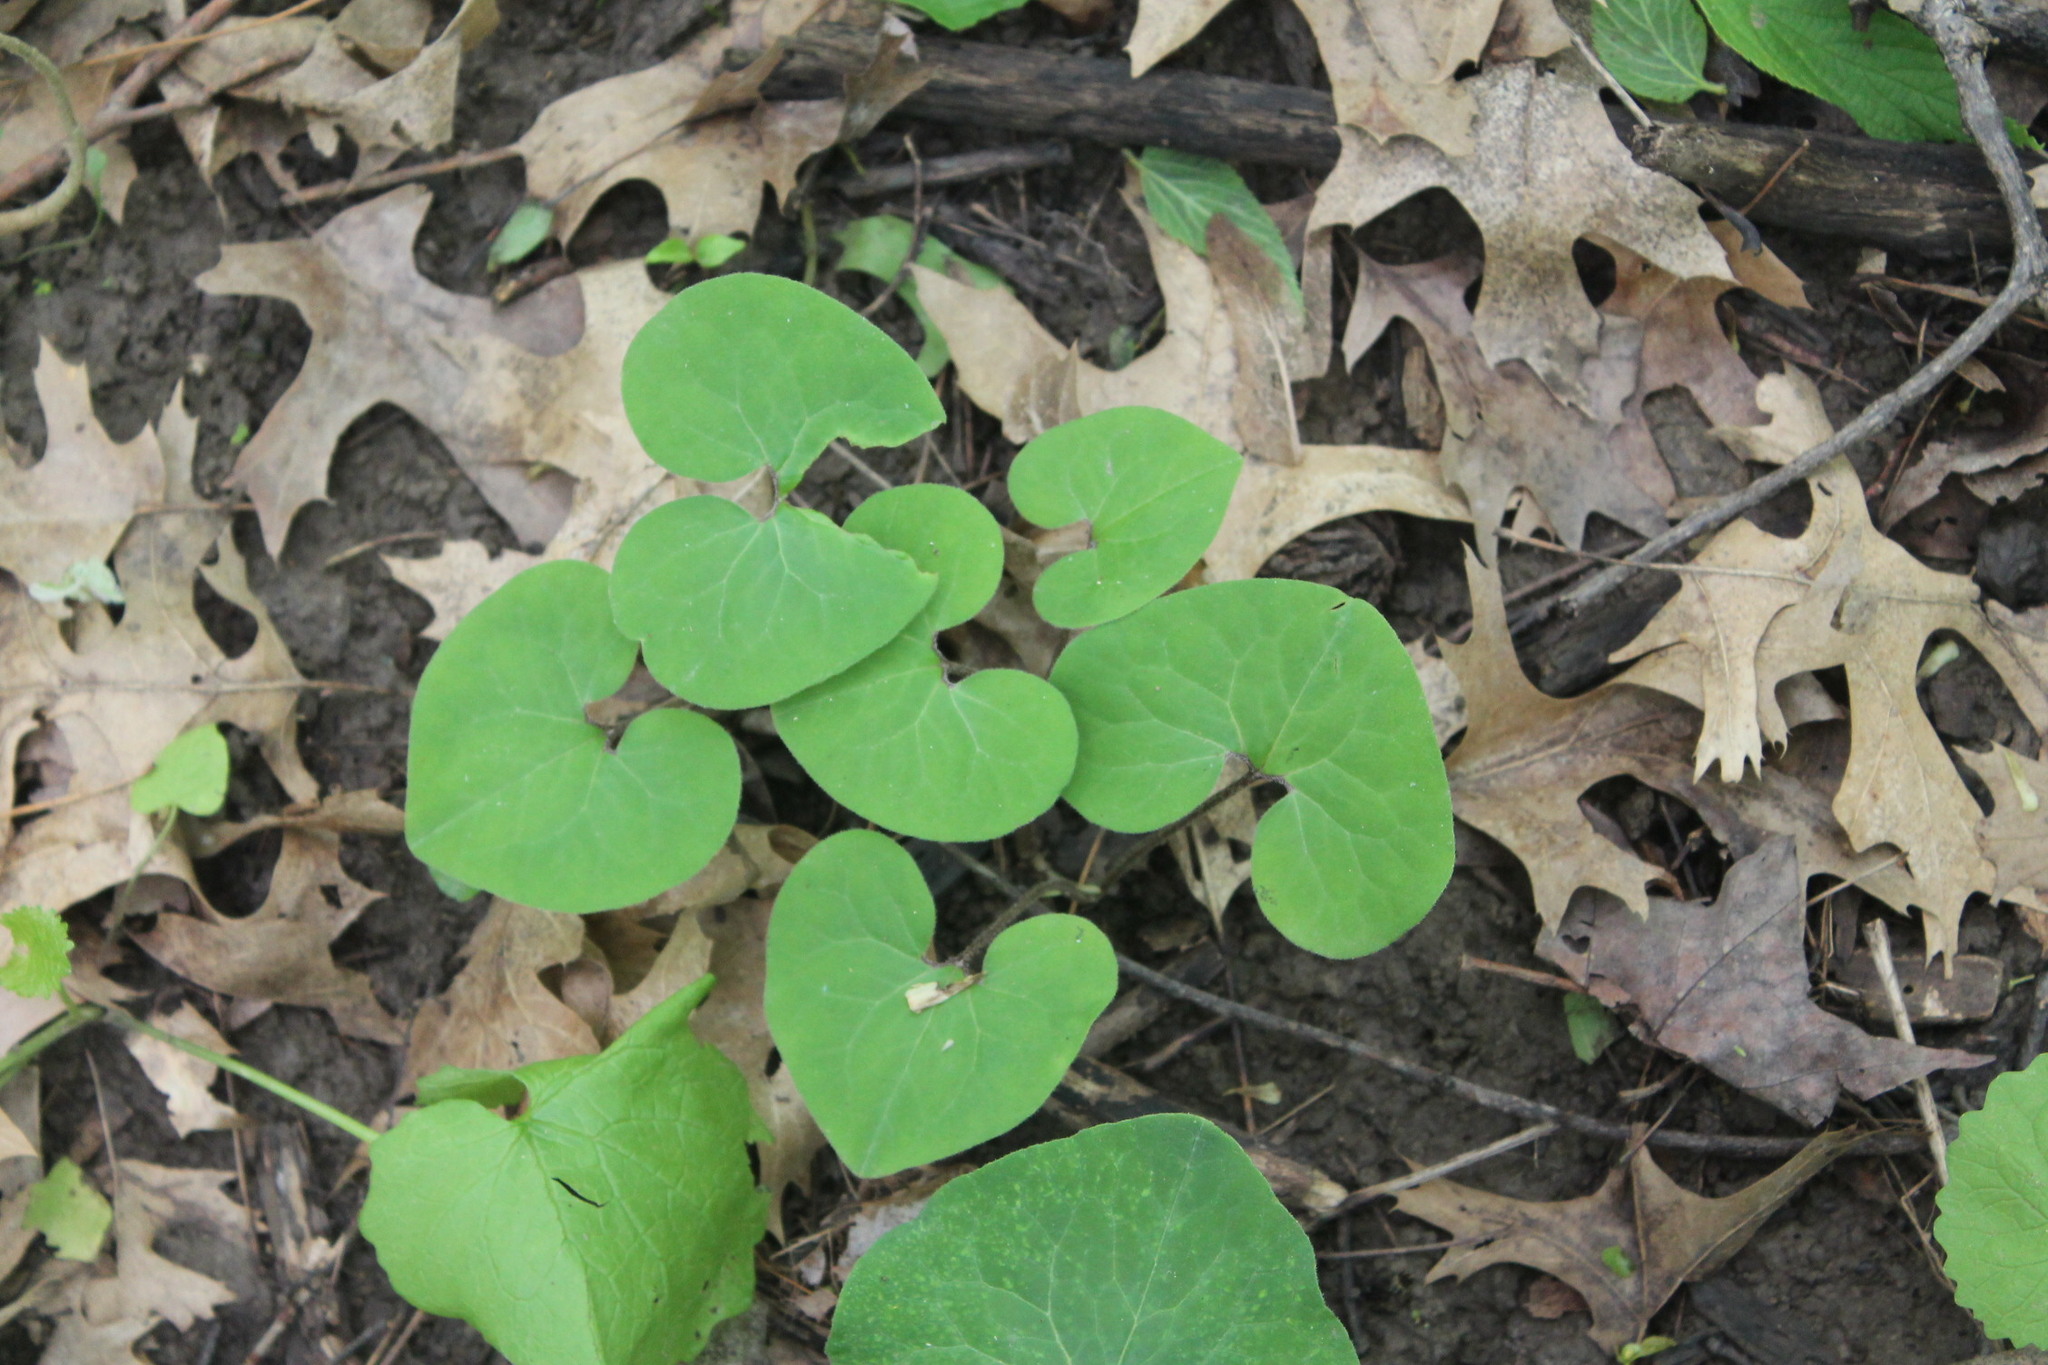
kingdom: Plantae
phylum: Tracheophyta
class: Magnoliopsida
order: Piperales
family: Aristolochiaceae
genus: Asarum
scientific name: Asarum canadense
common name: Wild ginger
